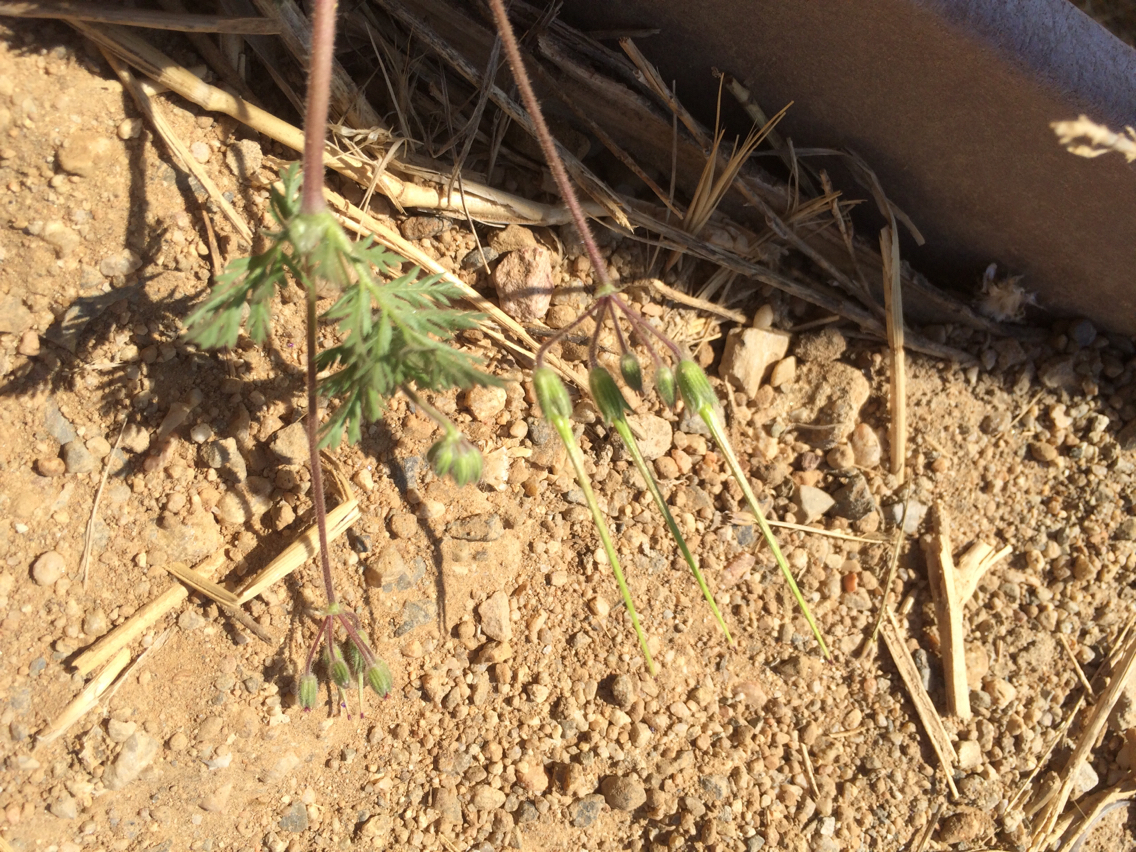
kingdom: Plantae
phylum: Tracheophyta
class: Magnoliopsida
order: Geraniales
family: Geraniaceae
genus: Erodium
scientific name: Erodium cicutarium
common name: Common stork's-bill
